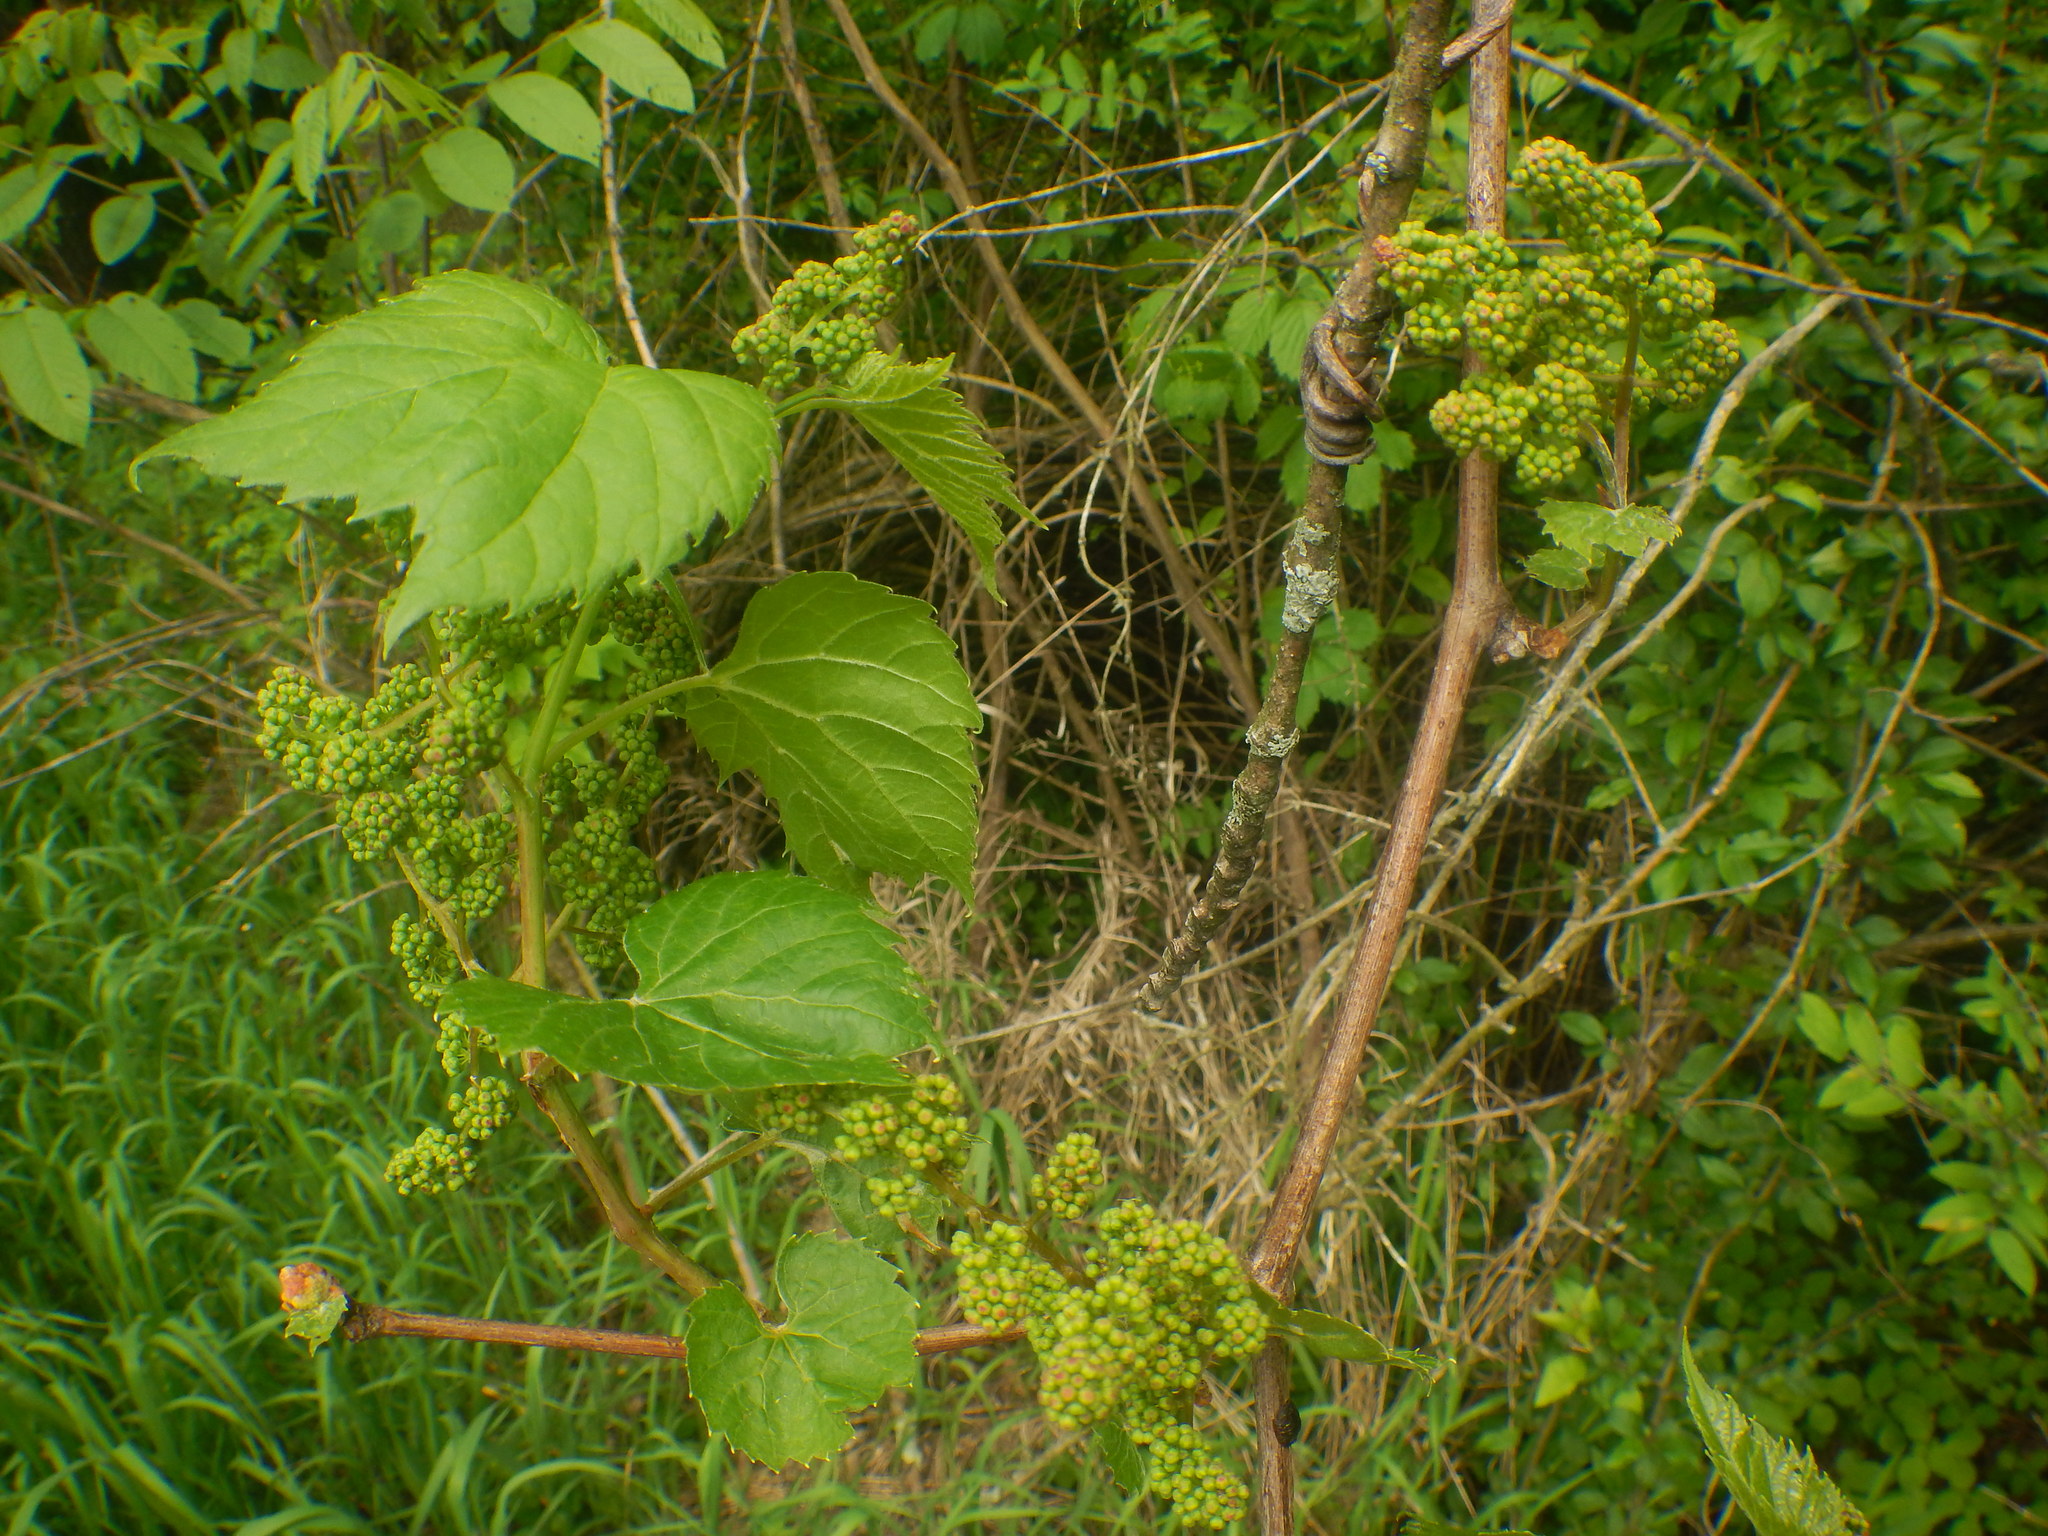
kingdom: Plantae
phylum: Tracheophyta
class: Magnoliopsida
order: Vitales
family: Vitaceae
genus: Vitis
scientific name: Vitis riparia
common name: Frost grape
